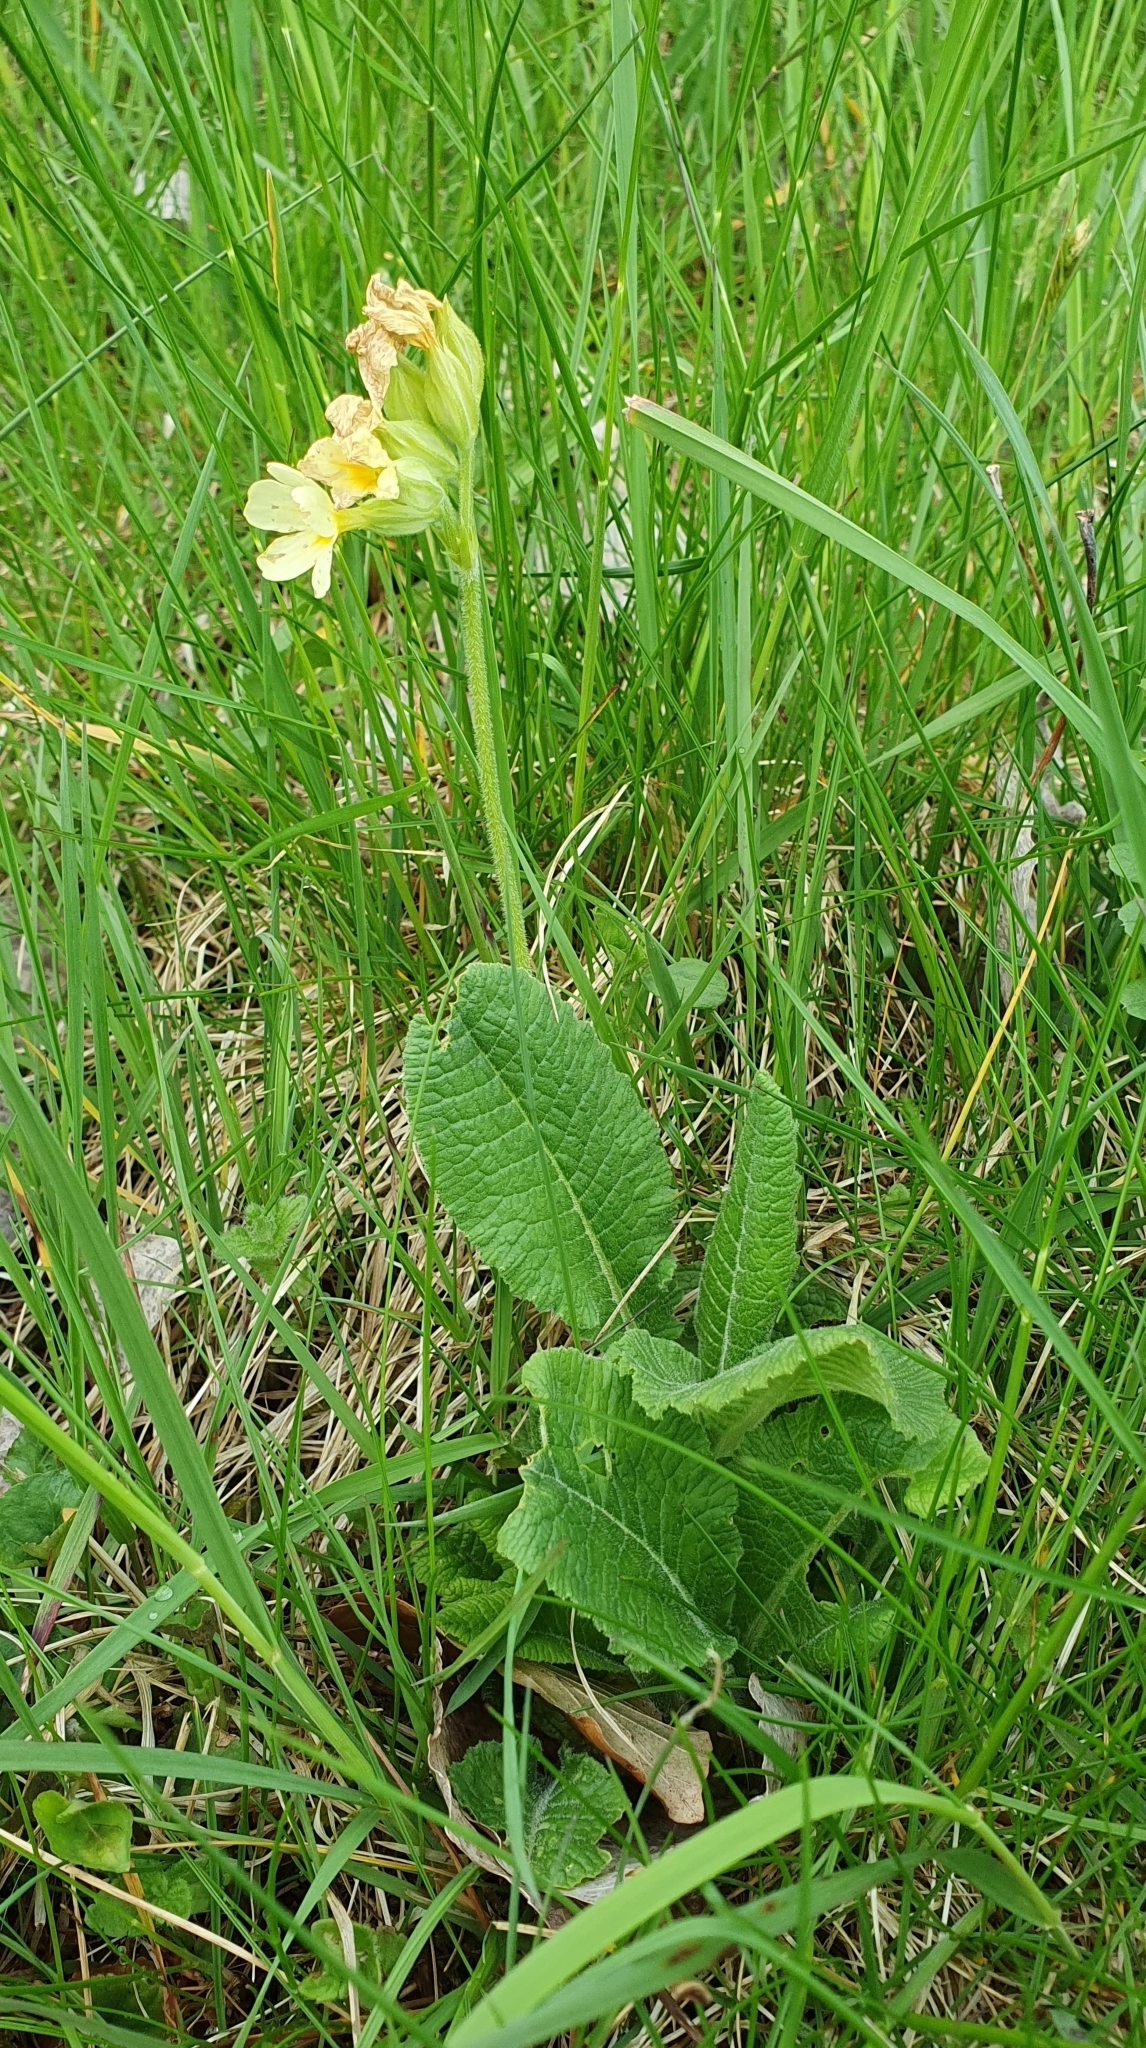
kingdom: Plantae
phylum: Tracheophyta
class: Magnoliopsida
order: Ericales
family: Primulaceae
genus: Primula
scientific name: Primula elatior
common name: Oxlip
